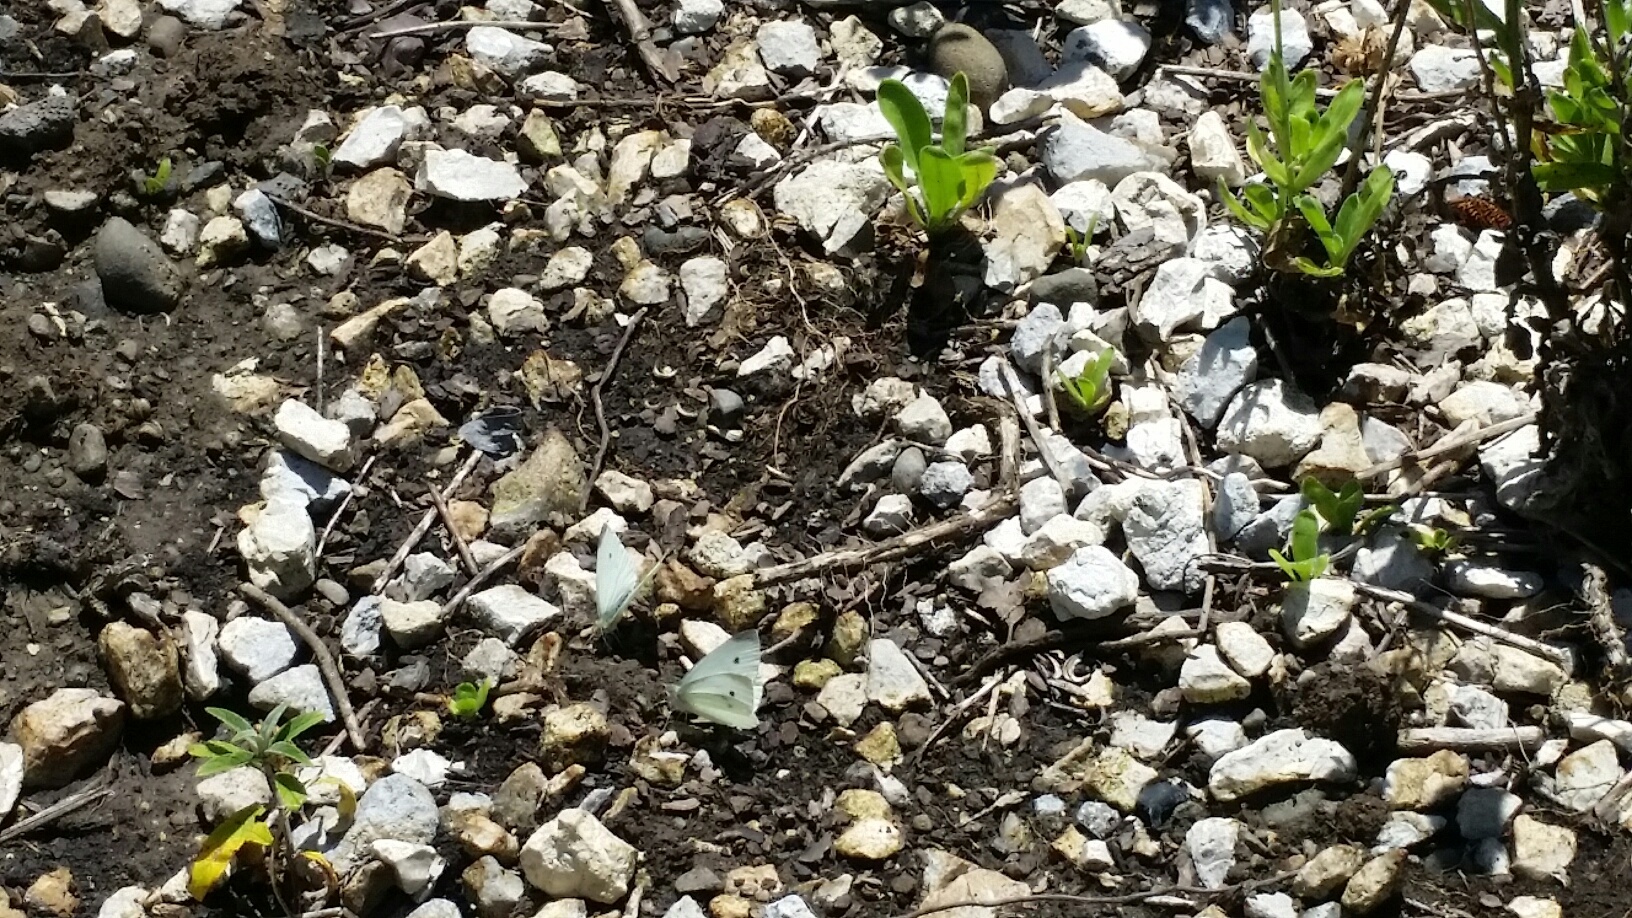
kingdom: Animalia
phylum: Arthropoda
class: Insecta
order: Lepidoptera
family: Pieridae
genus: Pieris
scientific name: Pieris rapae
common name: Small white
